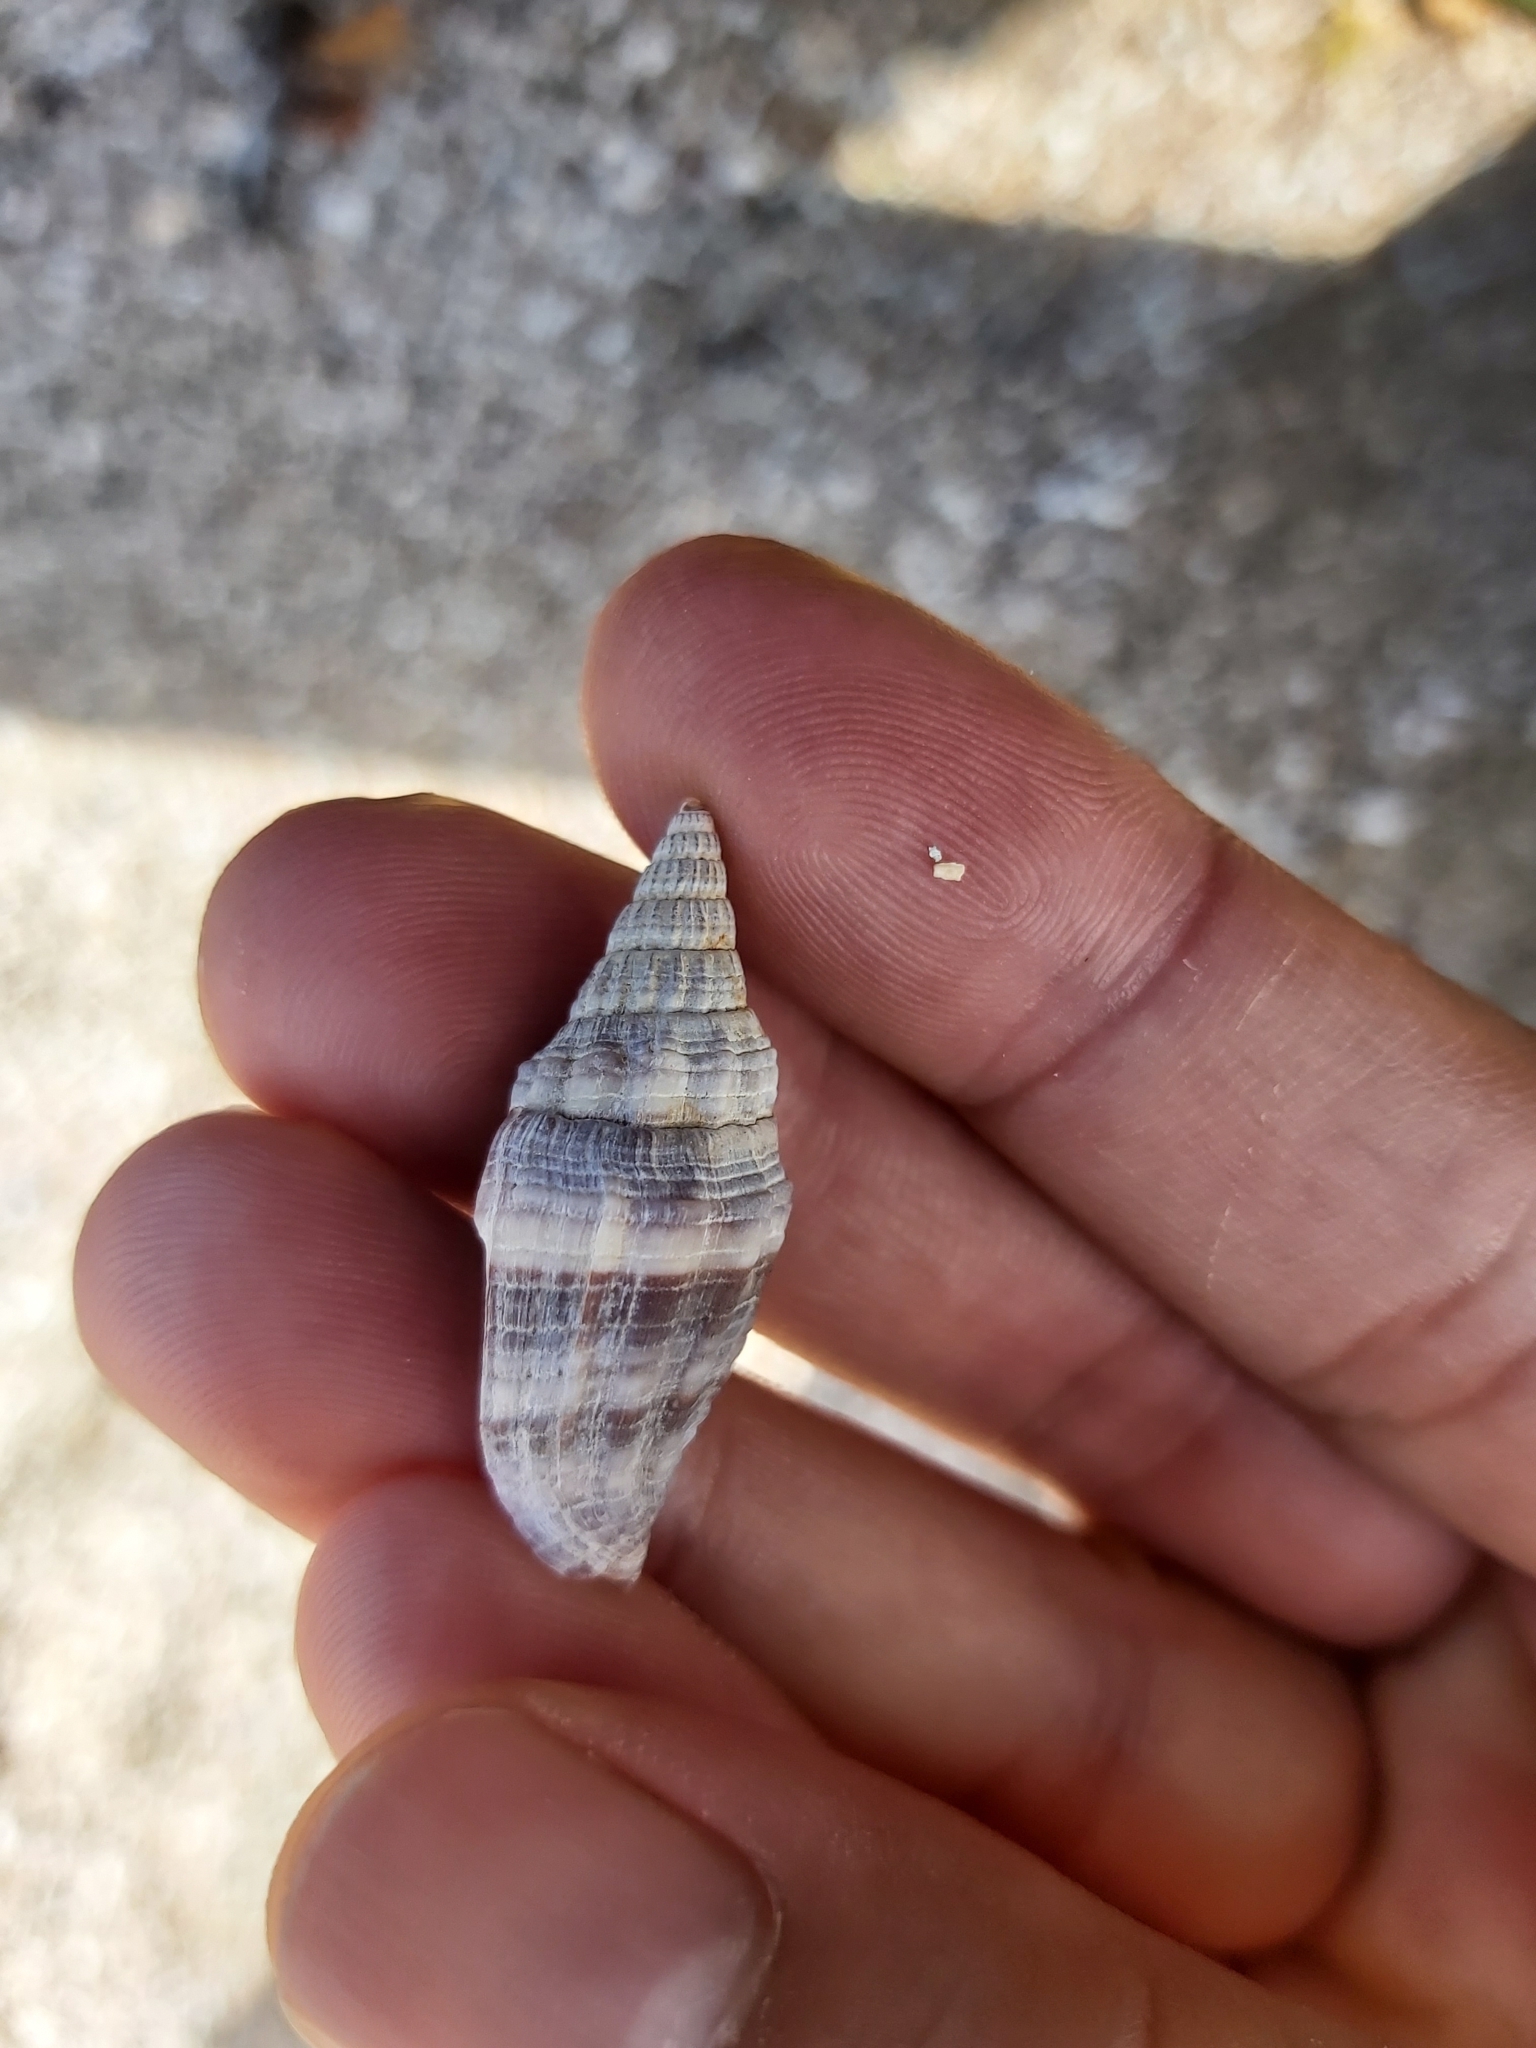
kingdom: Animalia
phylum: Mollusca
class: Gastropoda
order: Neogastropoda
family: Costellariidae
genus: Vexillum
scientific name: Vexillum rugosum
